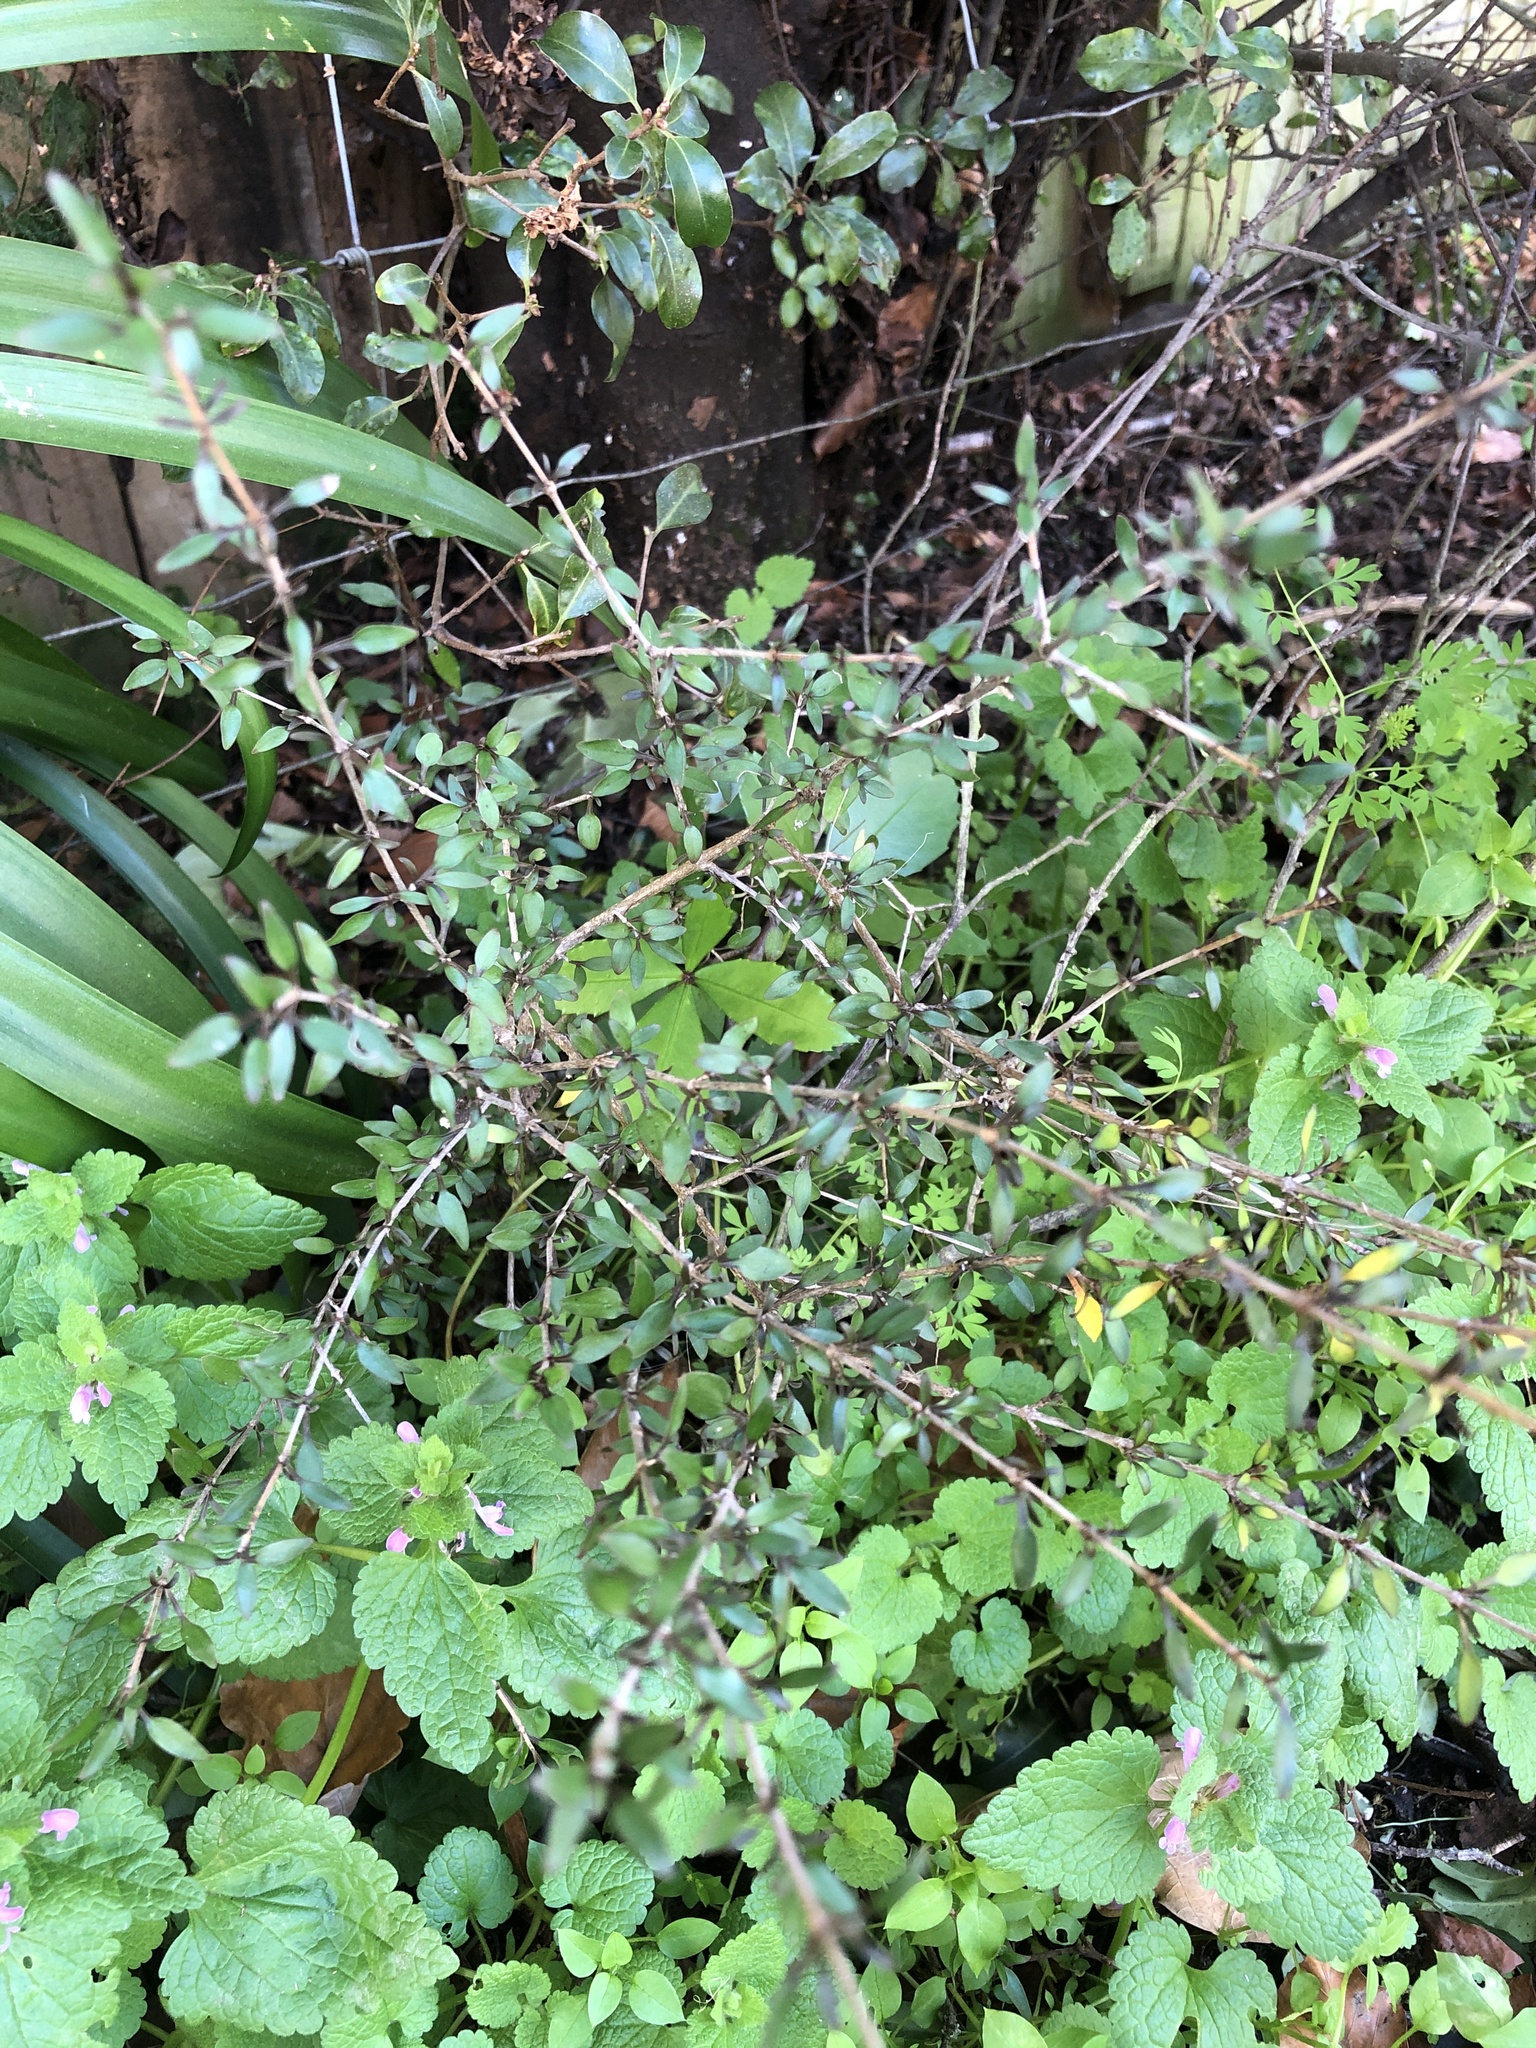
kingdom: Plantae
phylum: Tracheophyta
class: Magnoliopsida
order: Gentianales
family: Rubiaceae
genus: Coprosma
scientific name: Coprosma rhamnoides
